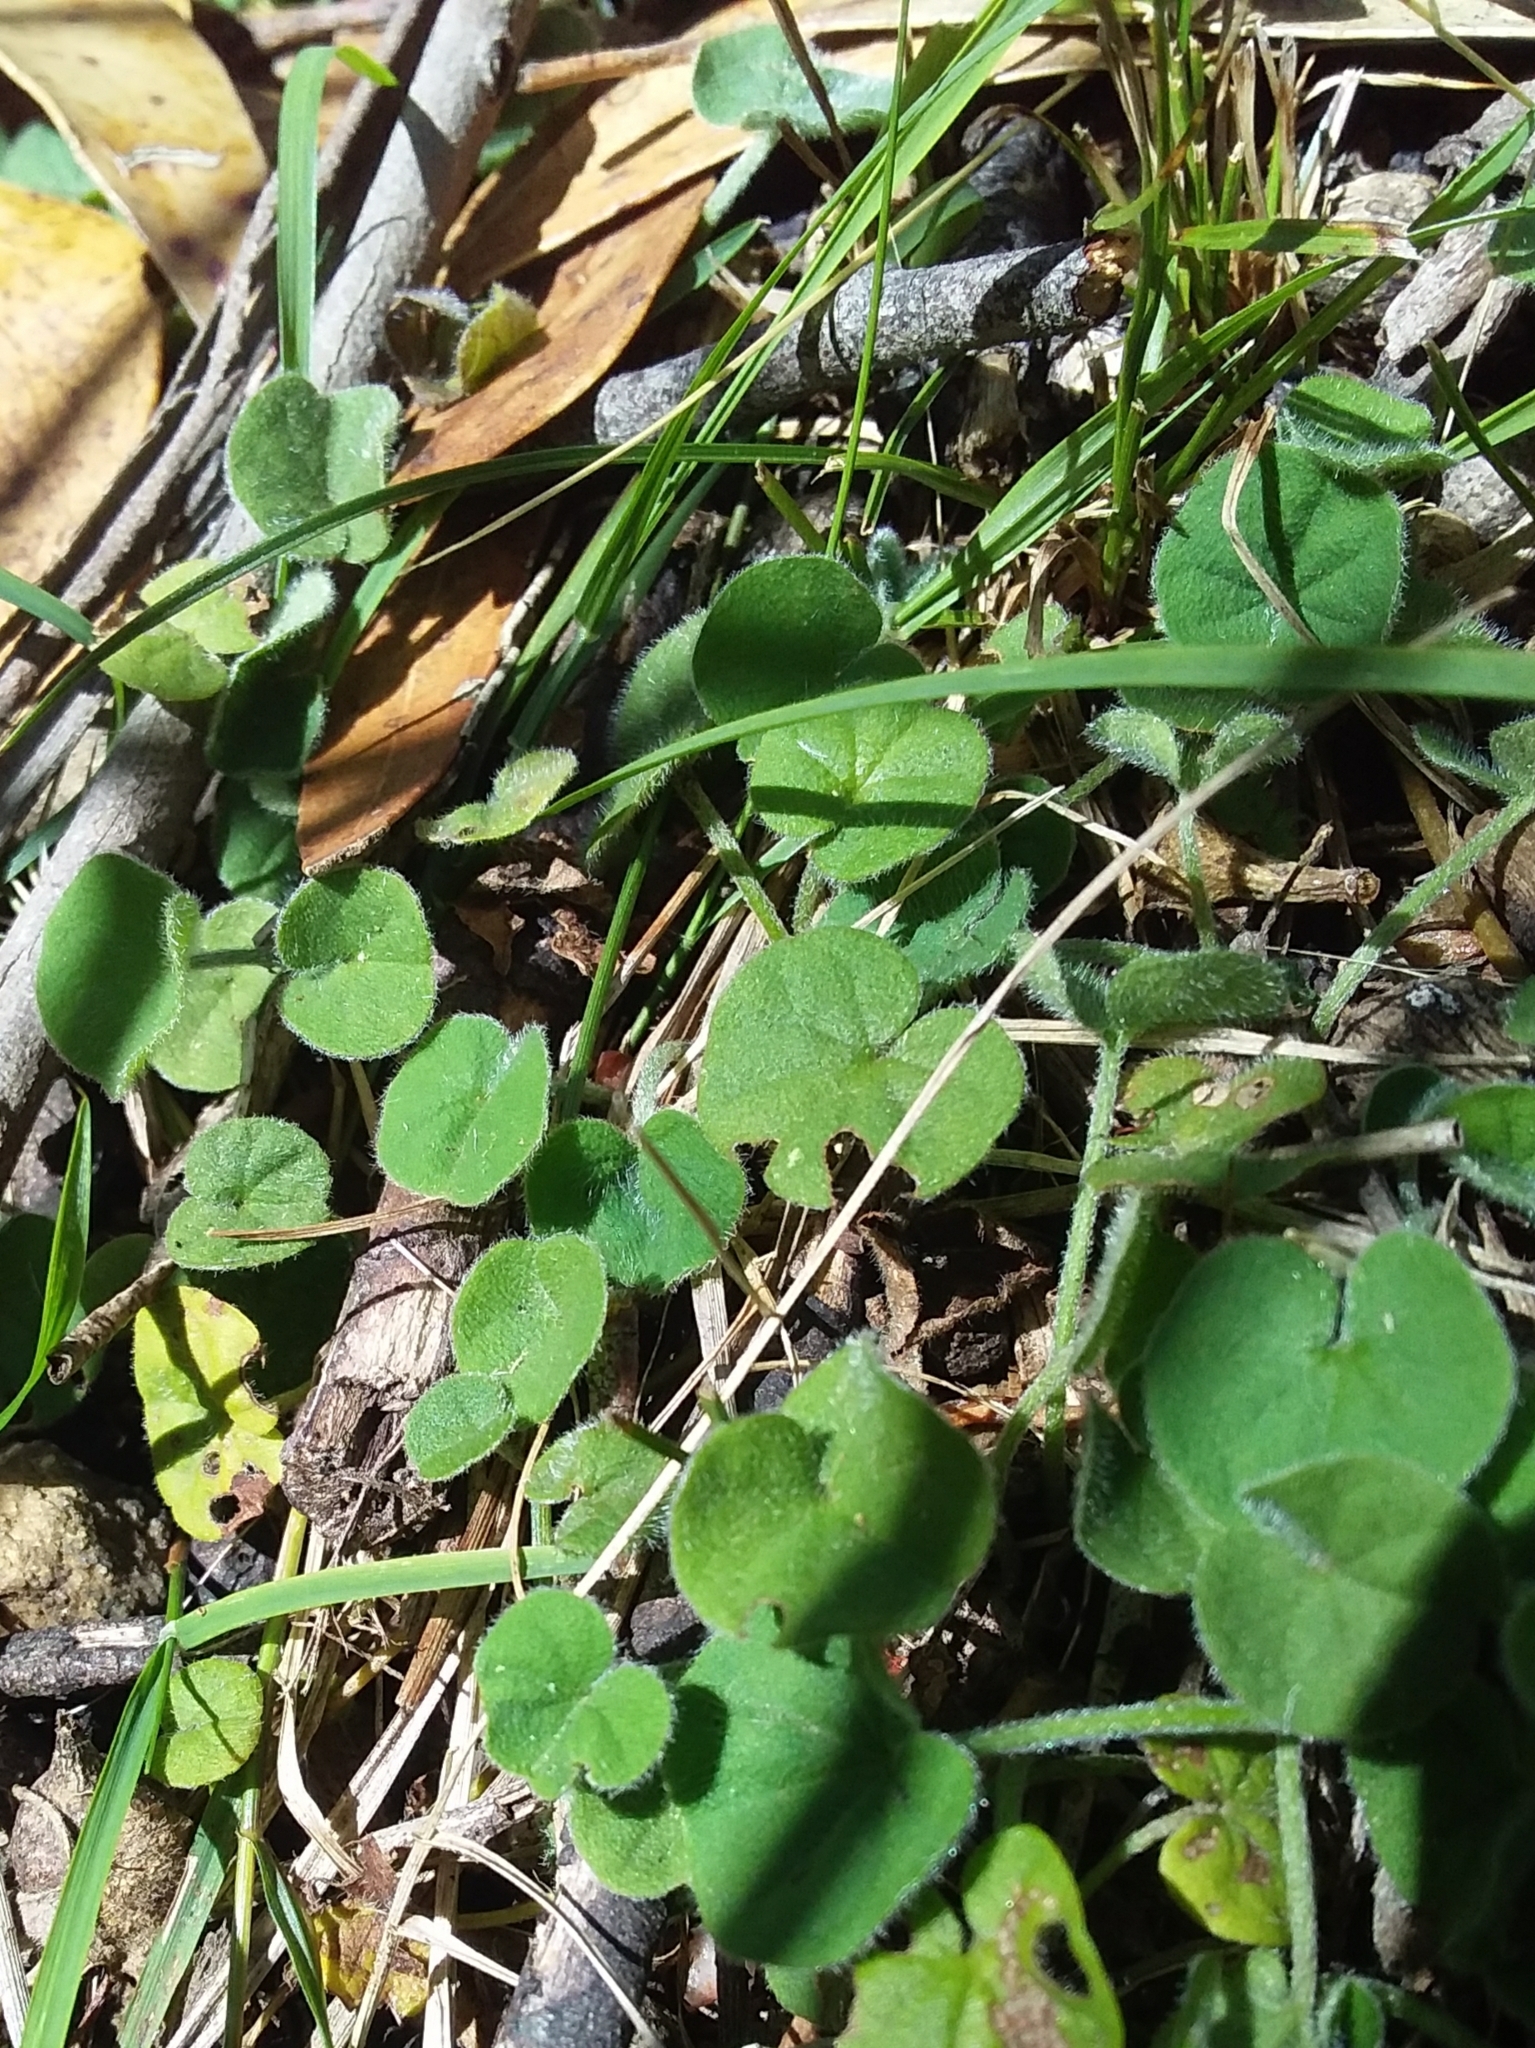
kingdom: Plantae
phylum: Tracheophyta
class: Magnoliopsida
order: Solanales
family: Convolvulaceae
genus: Dichondra
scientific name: Dichondra repens
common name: Kidneyweed
